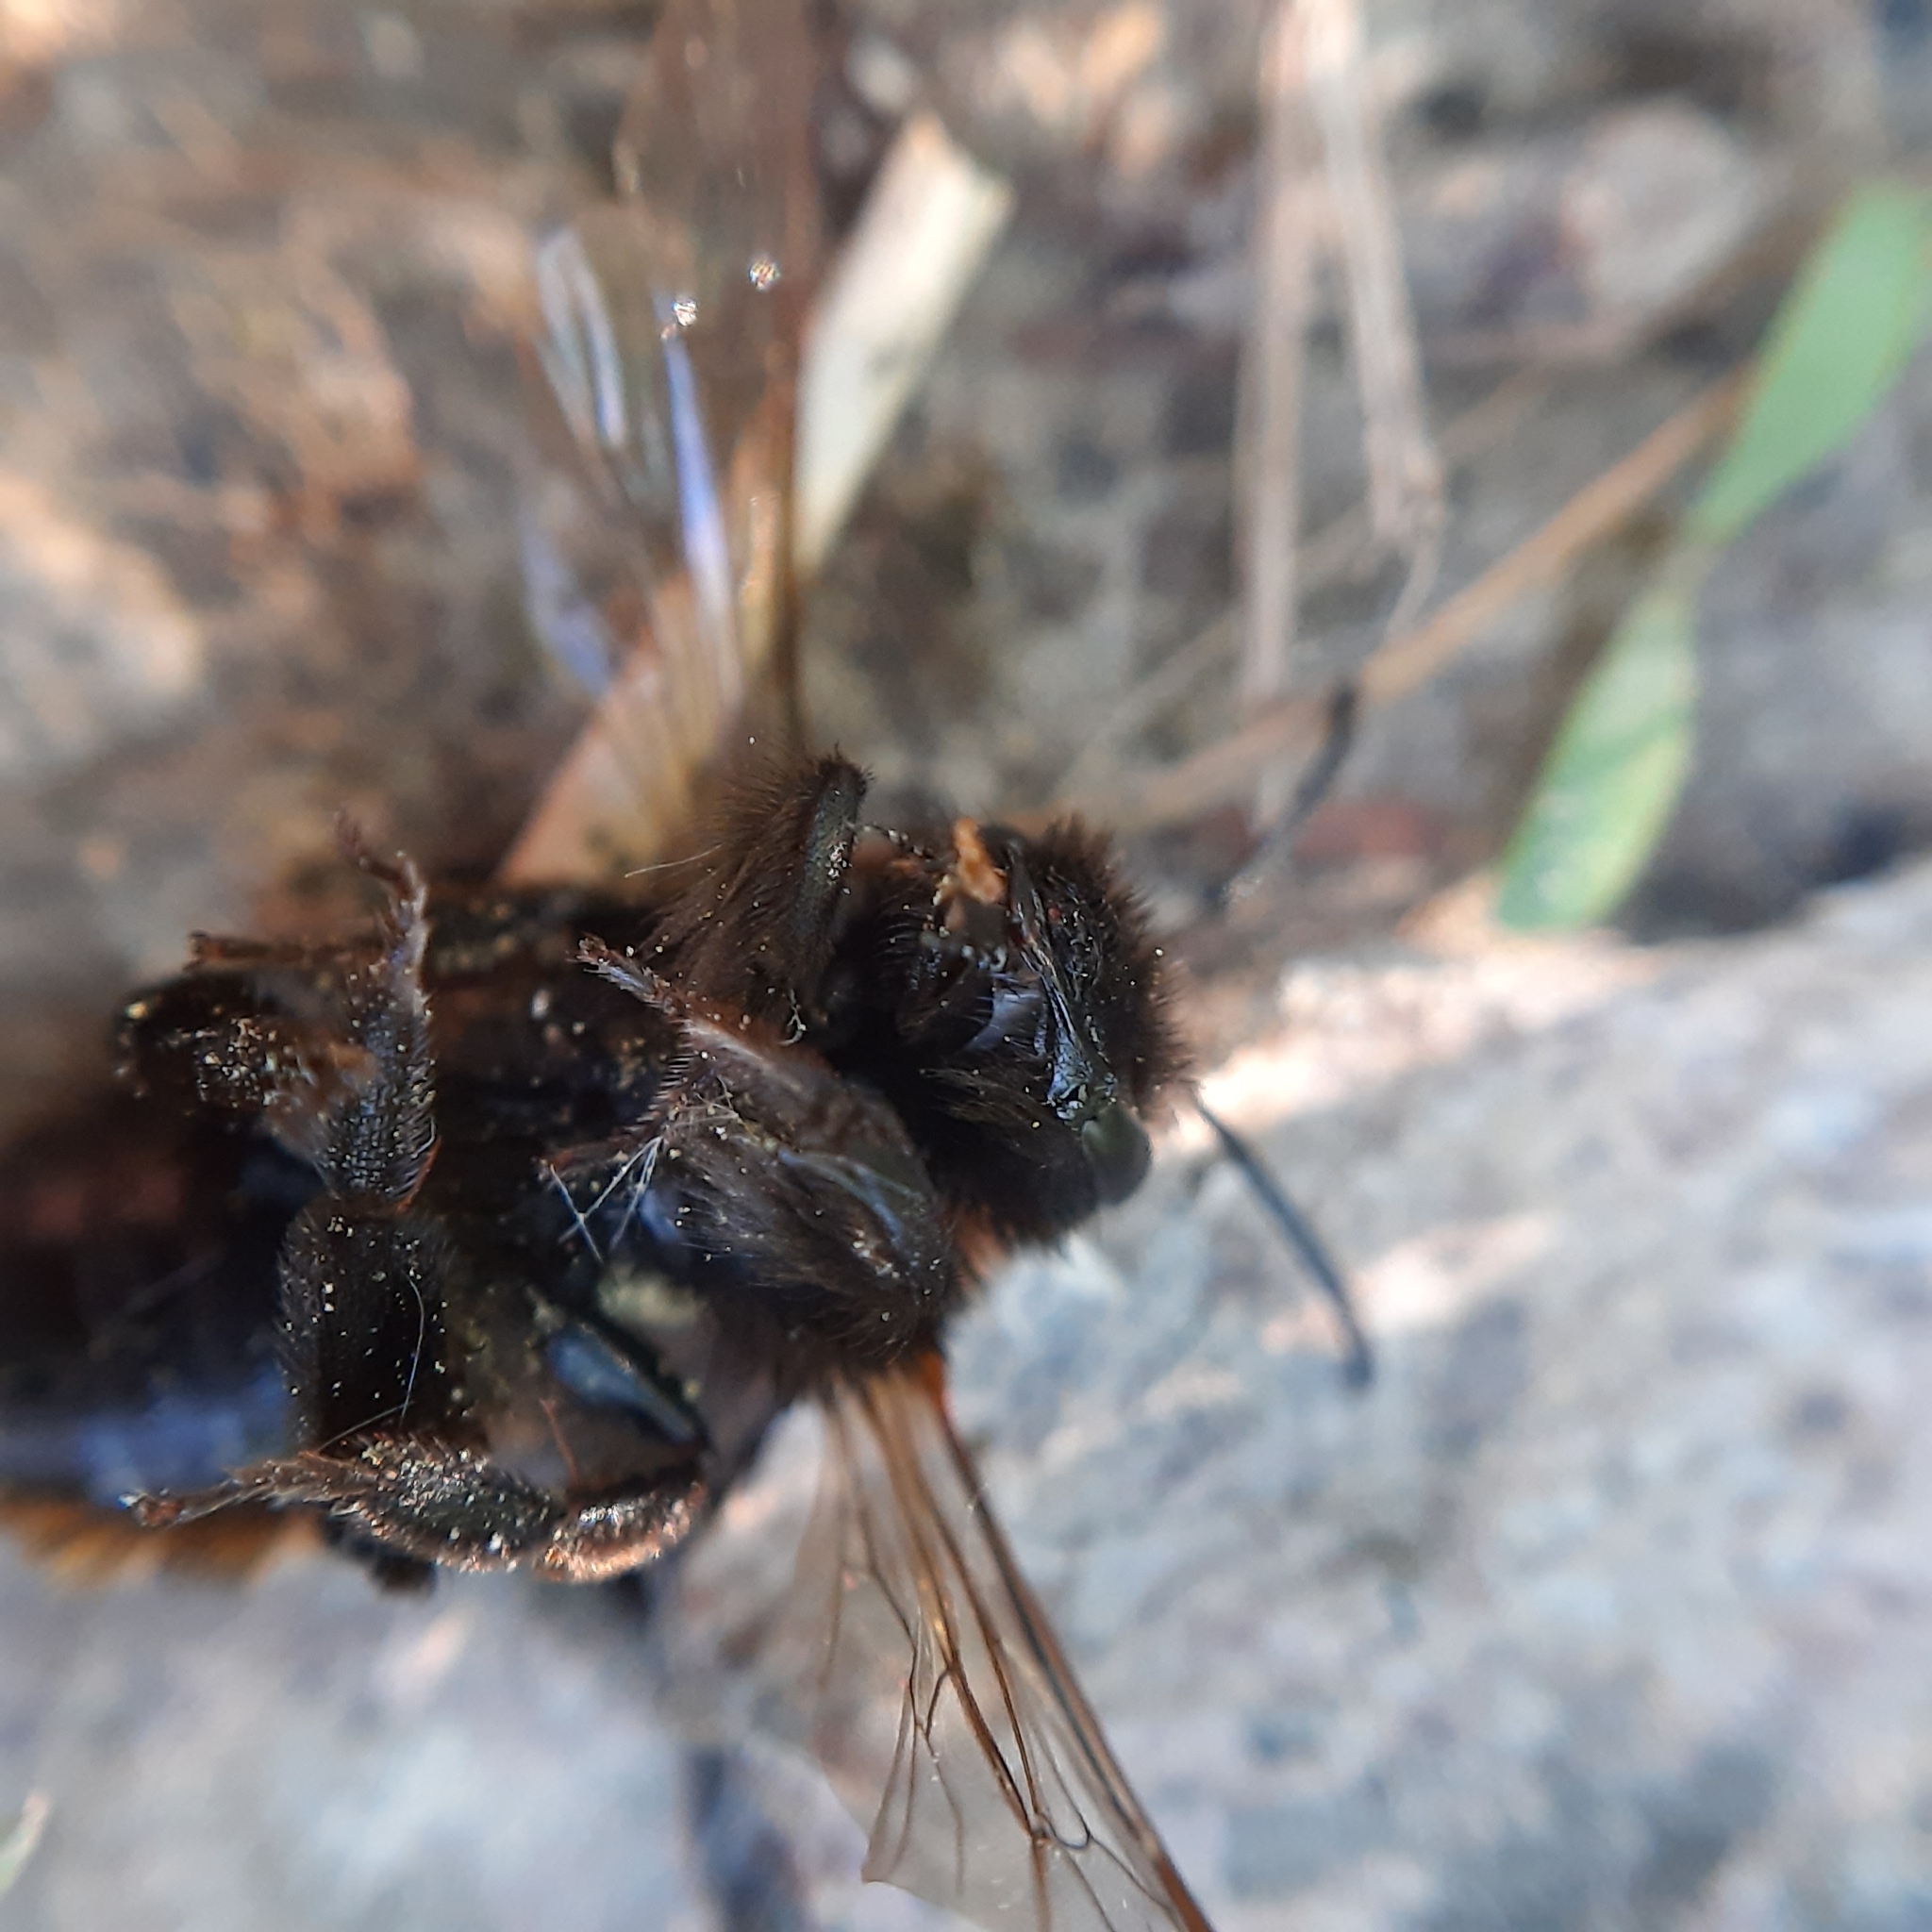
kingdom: Animalia
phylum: Arthropoda
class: Insecta
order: Hymenoptera
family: Andrenidae
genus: Andrena
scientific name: Andrena fulva
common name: Tawny mining bee
